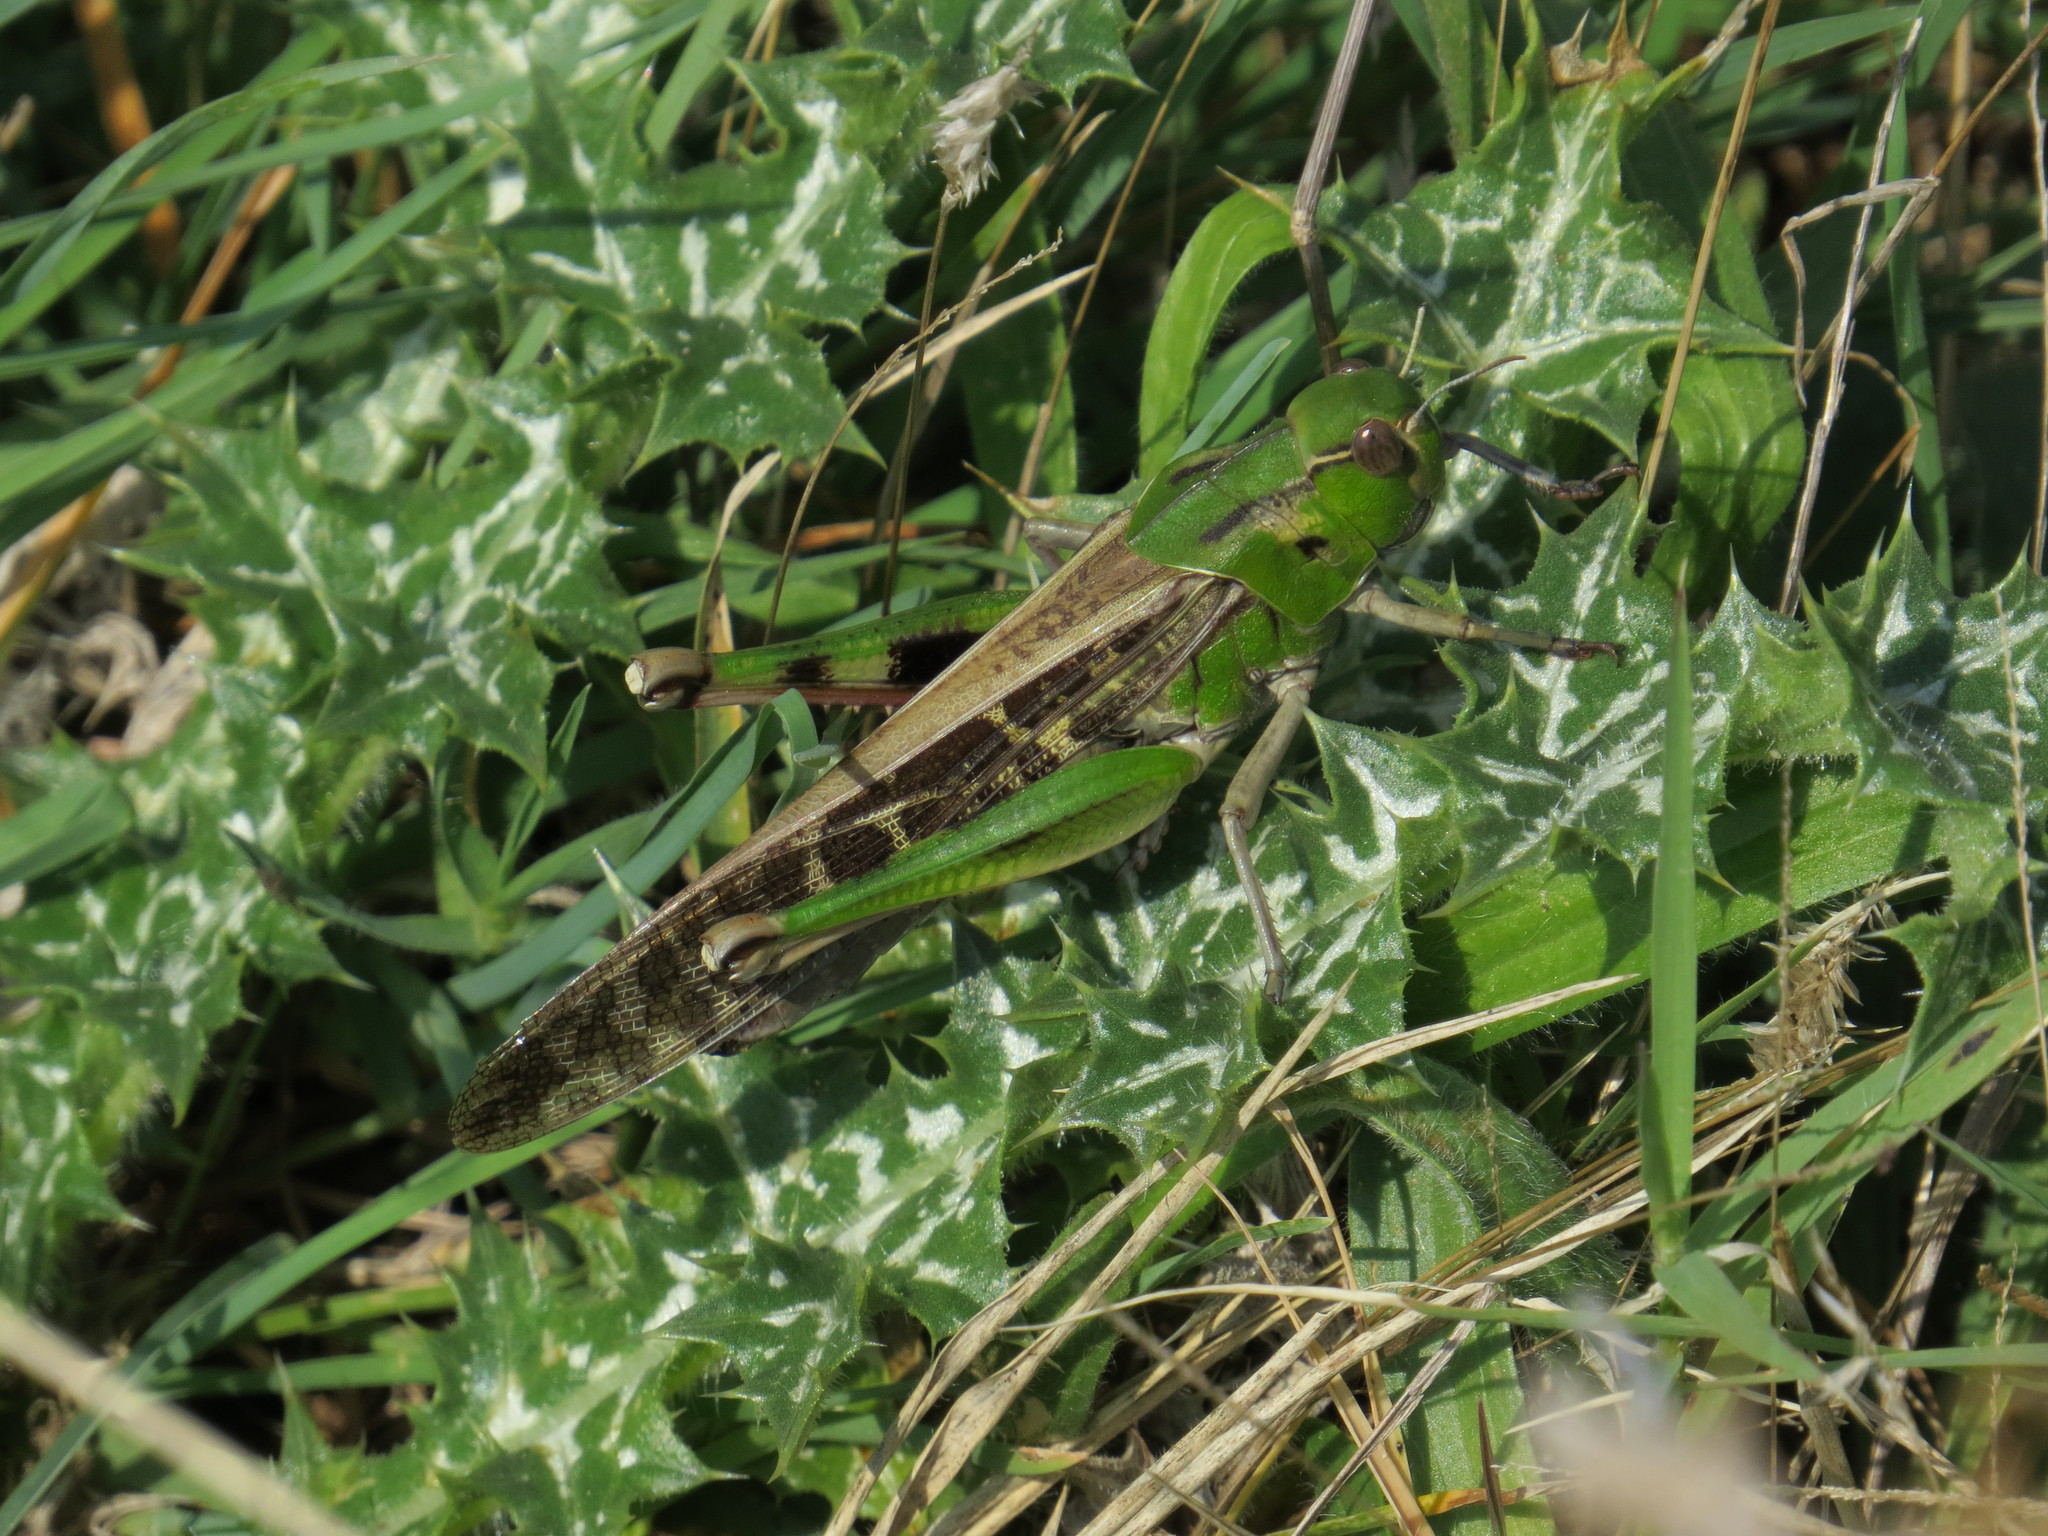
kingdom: Animalia
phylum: Arthropoda
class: Insecta
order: Orthoptera
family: Acrididae
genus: Locusta
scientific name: Locusta migratoria
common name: Migratory locust
